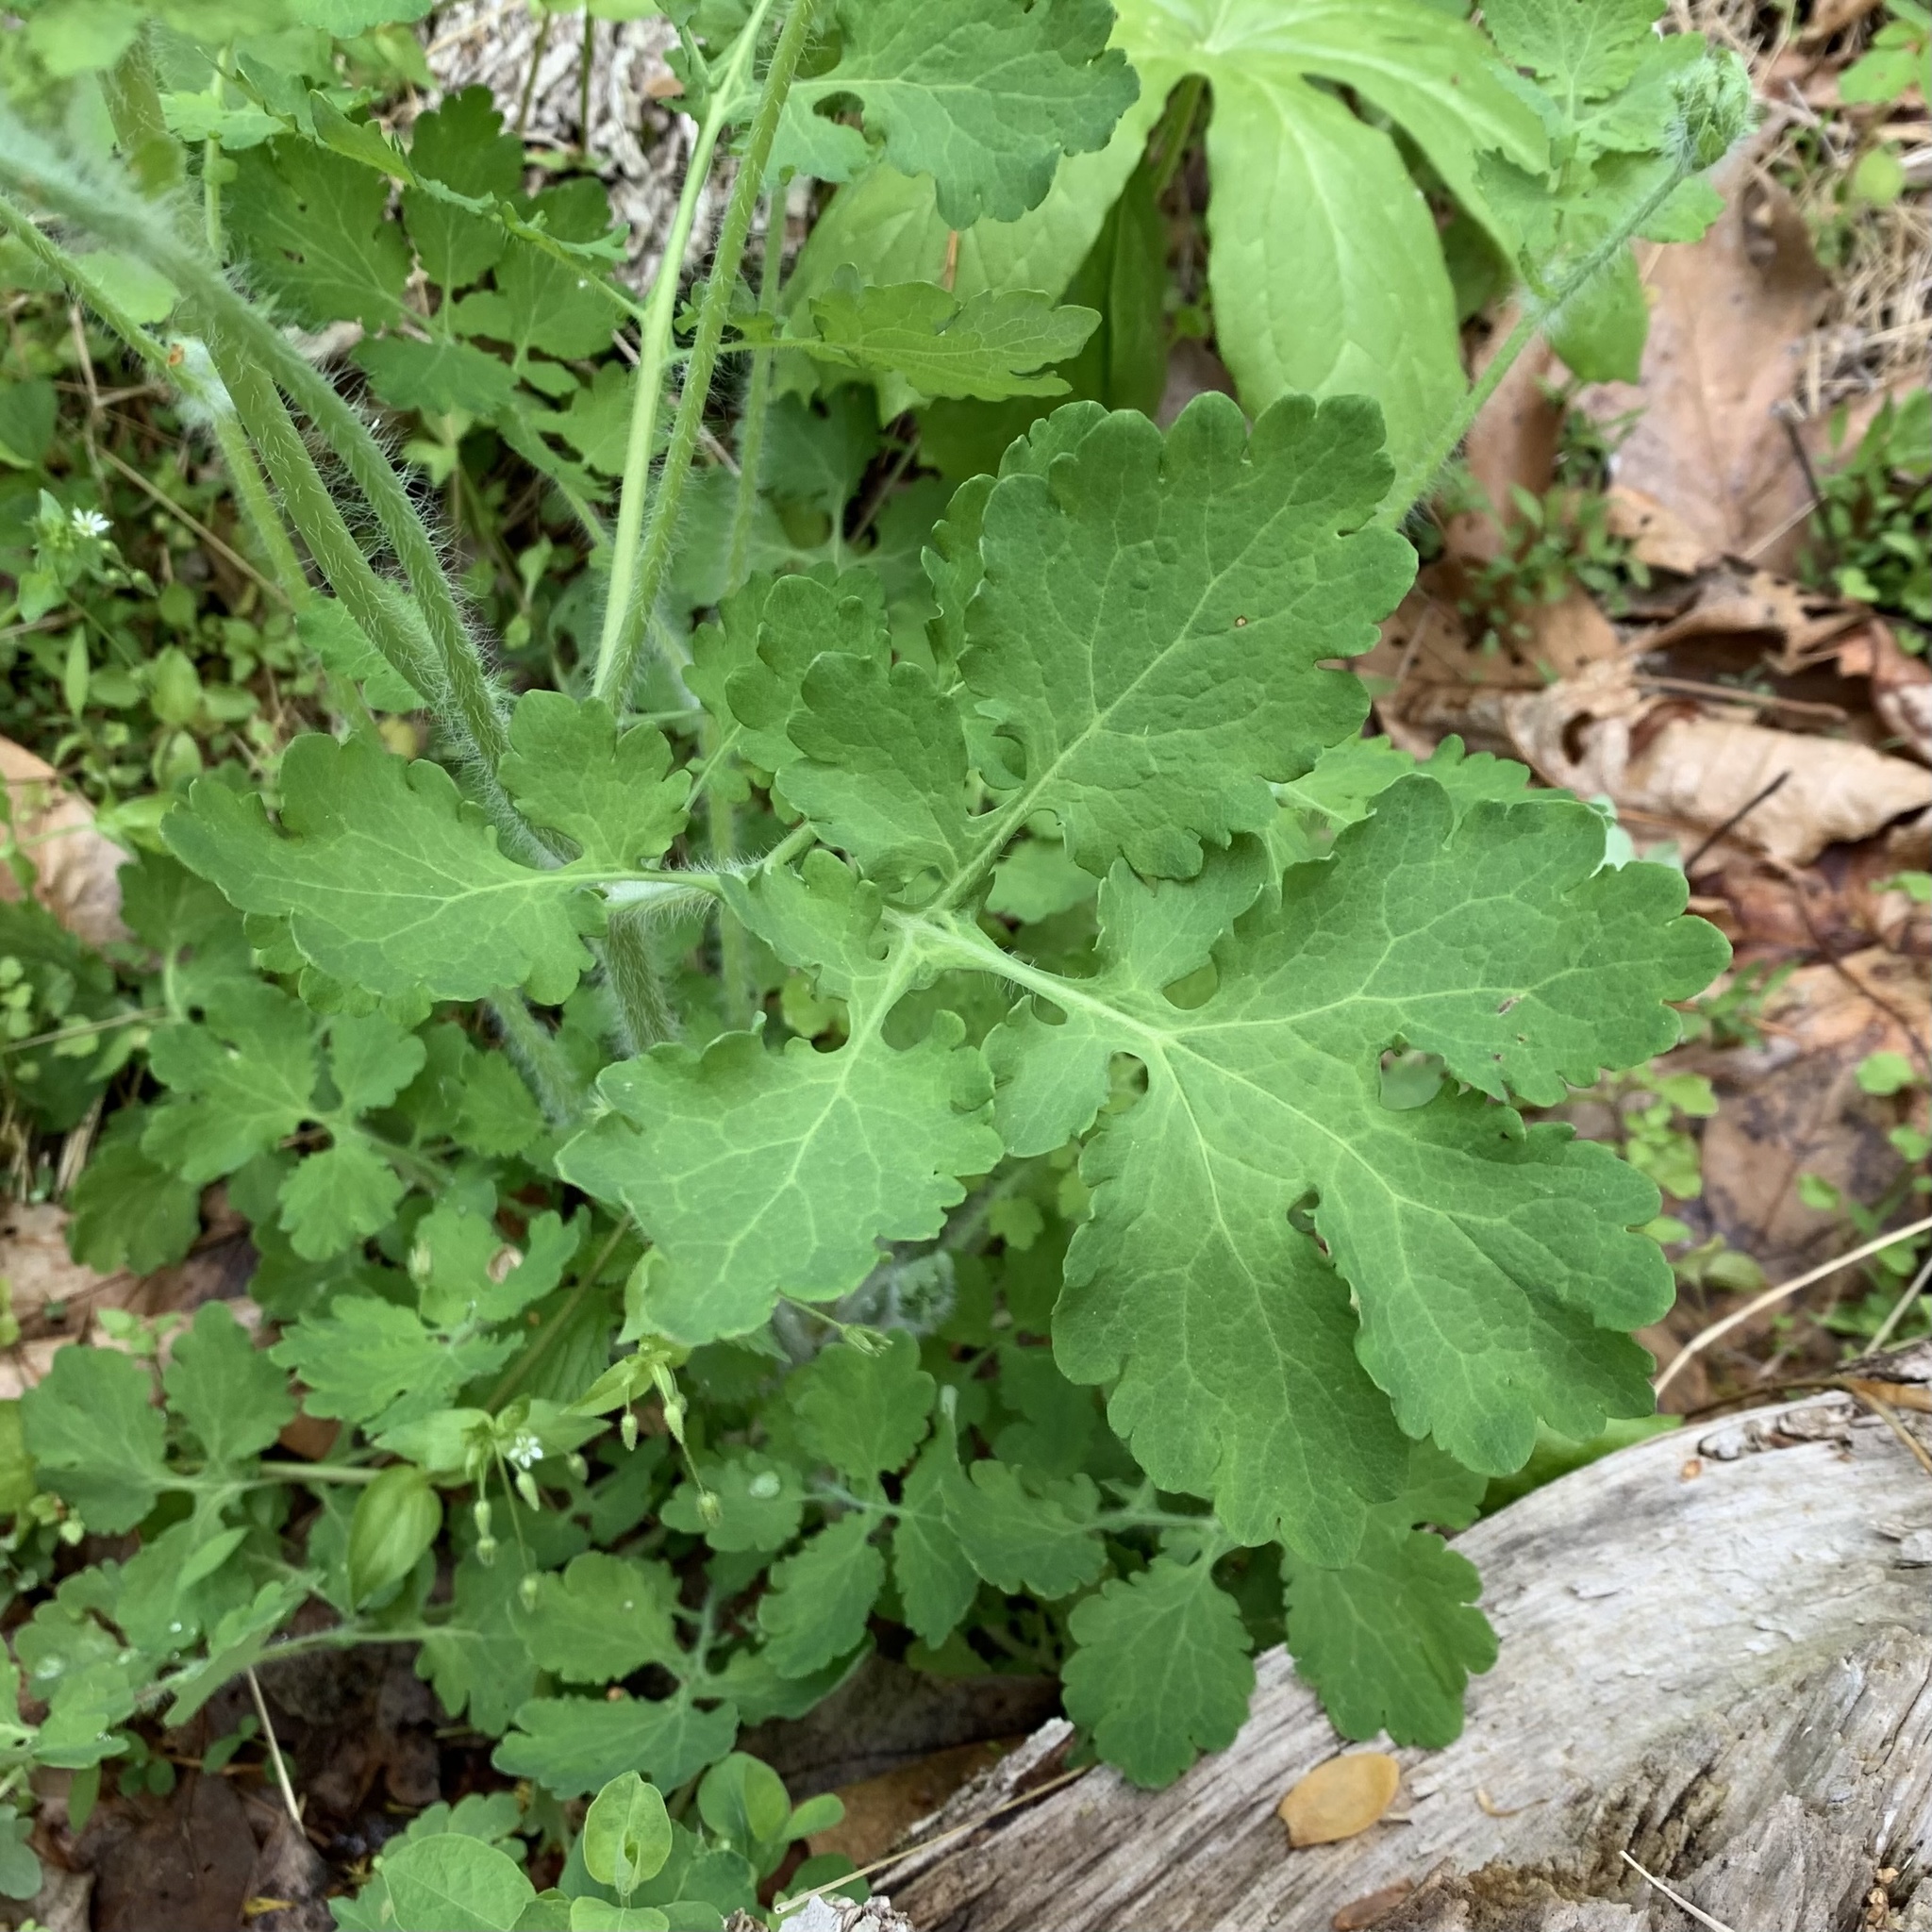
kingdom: Plantae
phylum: Tracheophyta
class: Magnoliopsida
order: Ranunculales
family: Papaveraceae
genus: Chelidonium
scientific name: Chelidonium majus
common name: Greater celandine
